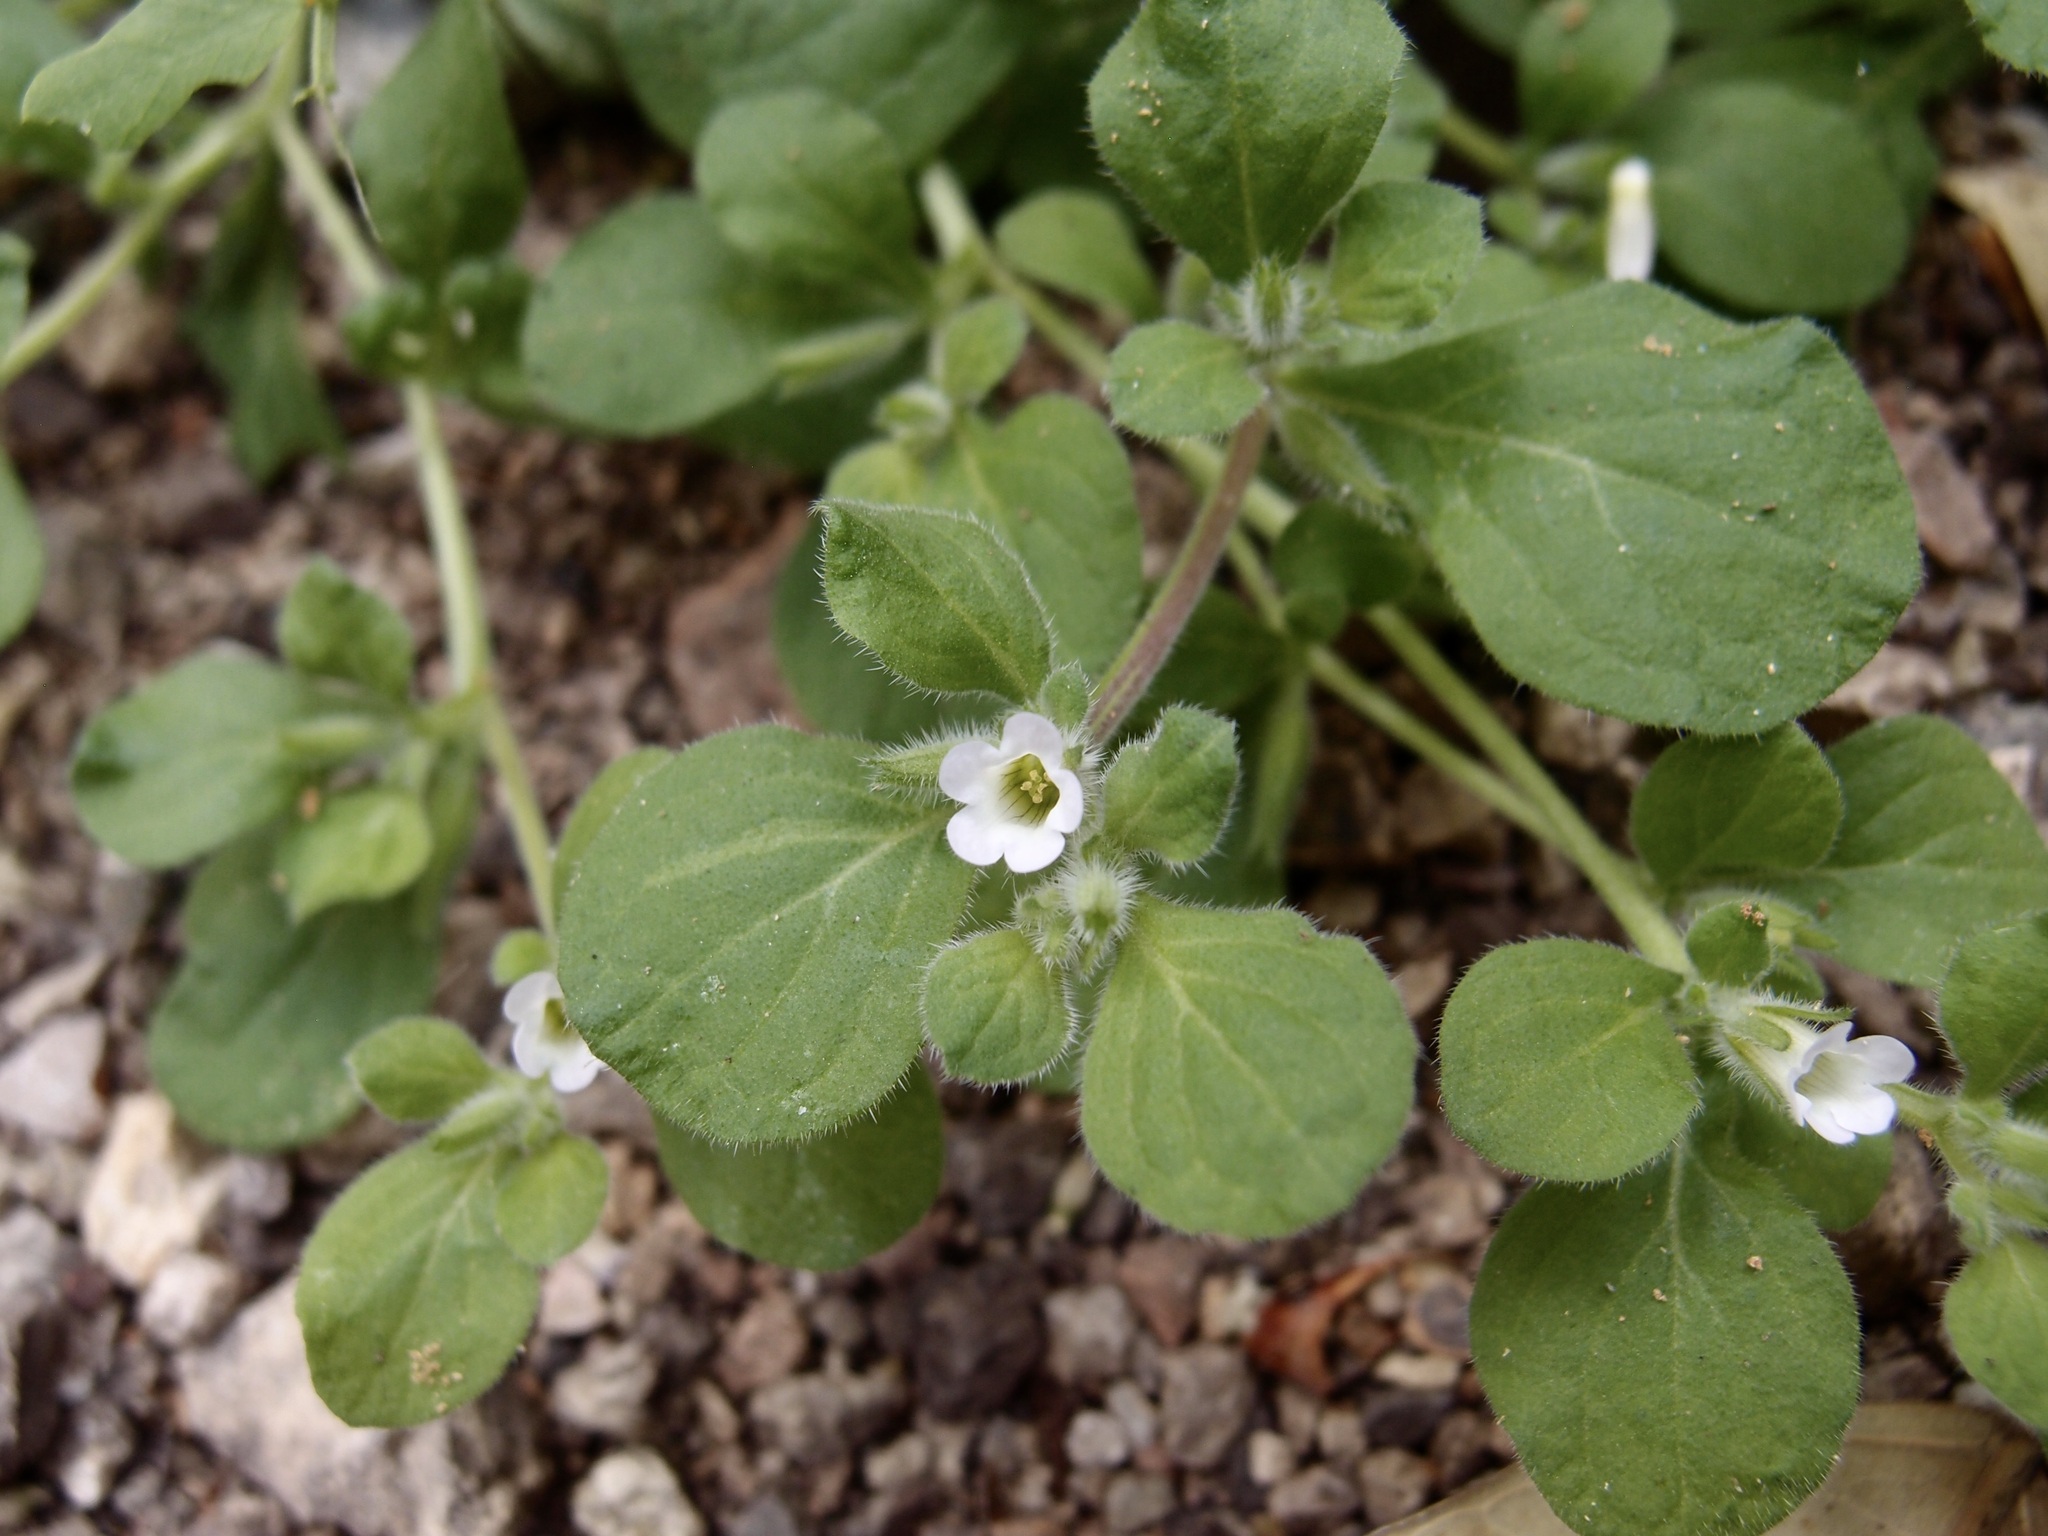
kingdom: Plantae
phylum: Tracheophyta
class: Magnoliopsida
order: Boraginales
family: Namaceae
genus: Nama
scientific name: Nama jamaicensis
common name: Jamaicanweed
